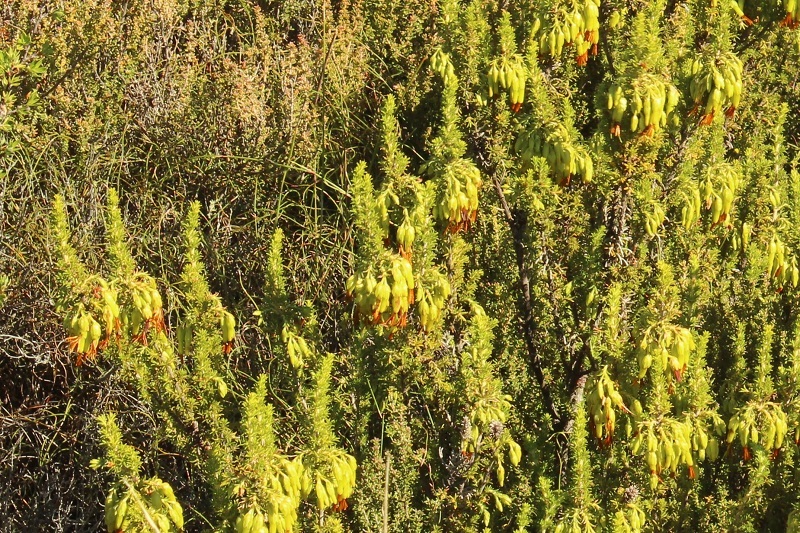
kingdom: Plantae
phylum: Tracheophyta
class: Magnoliopsida
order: Ericales
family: Ericaceae
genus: Erica
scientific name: Erica coccinea
